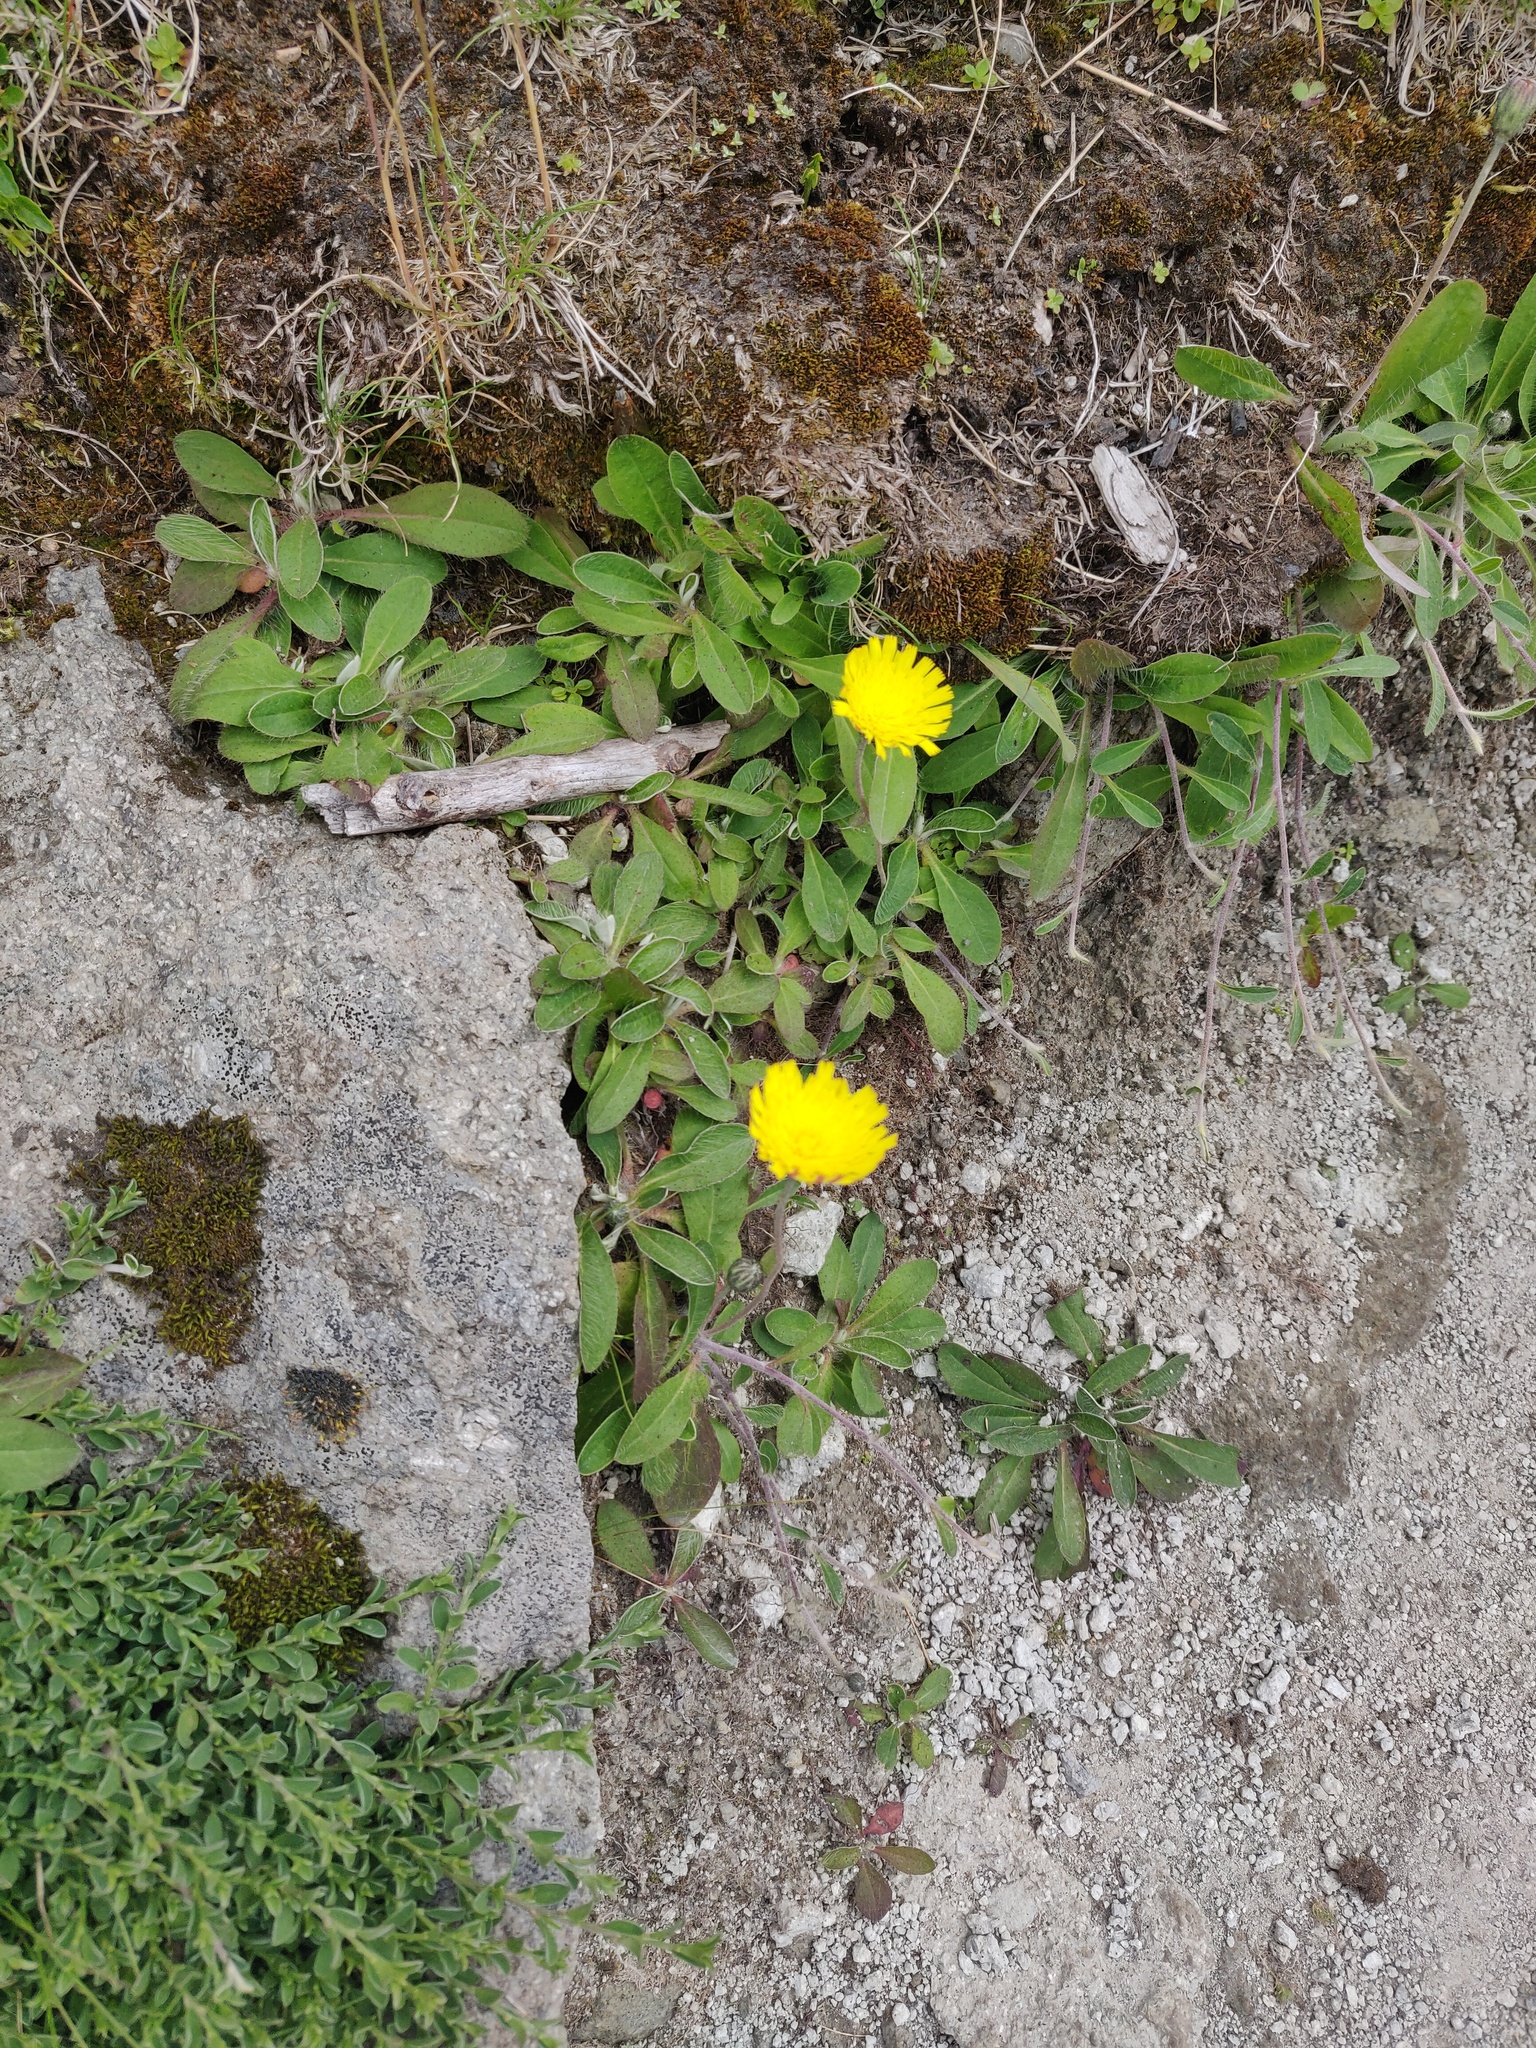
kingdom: Plantae
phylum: Tracheophyta
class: Magnoliopsida
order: Asterales
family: Asteraceae
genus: Pilosella
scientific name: Pilosella officinarum
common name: Mouse-ear hawkweed
